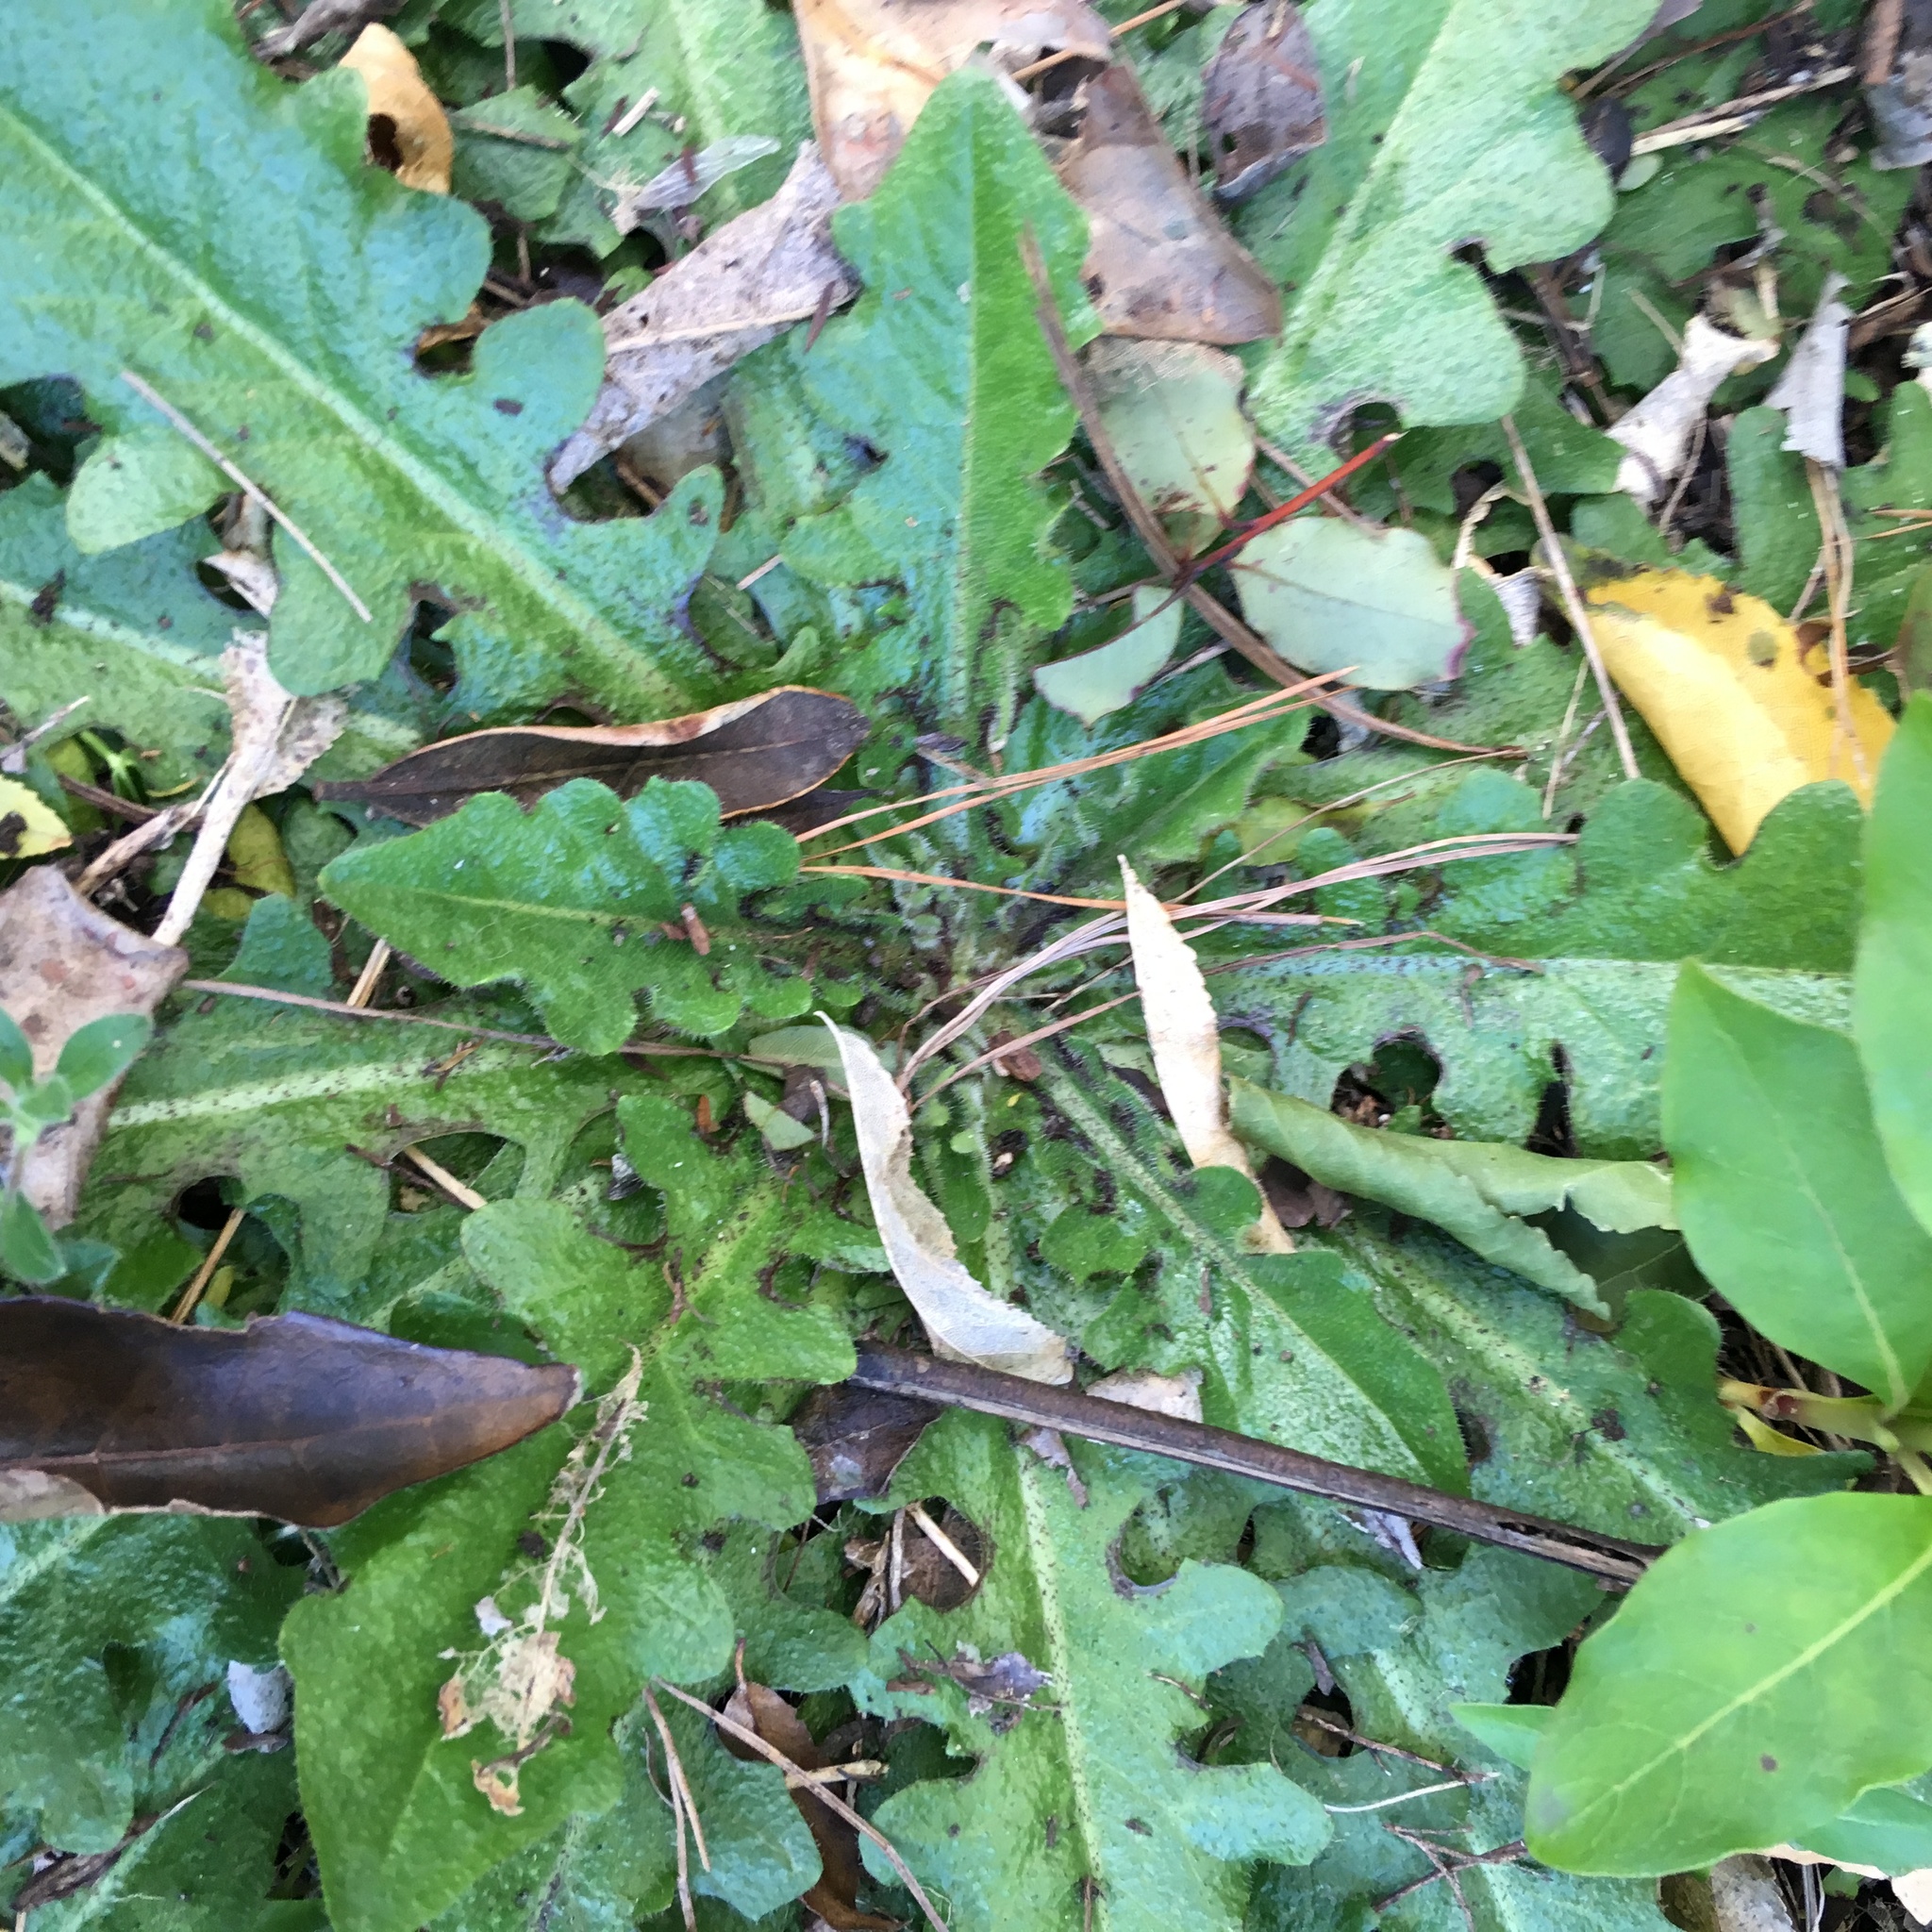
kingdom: Plantae
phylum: Tracheophyta
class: Magnoliopsida
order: Asterales
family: Asteraceae
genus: Hypochaeris
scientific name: Hypochaeris radicata
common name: Flatweed
